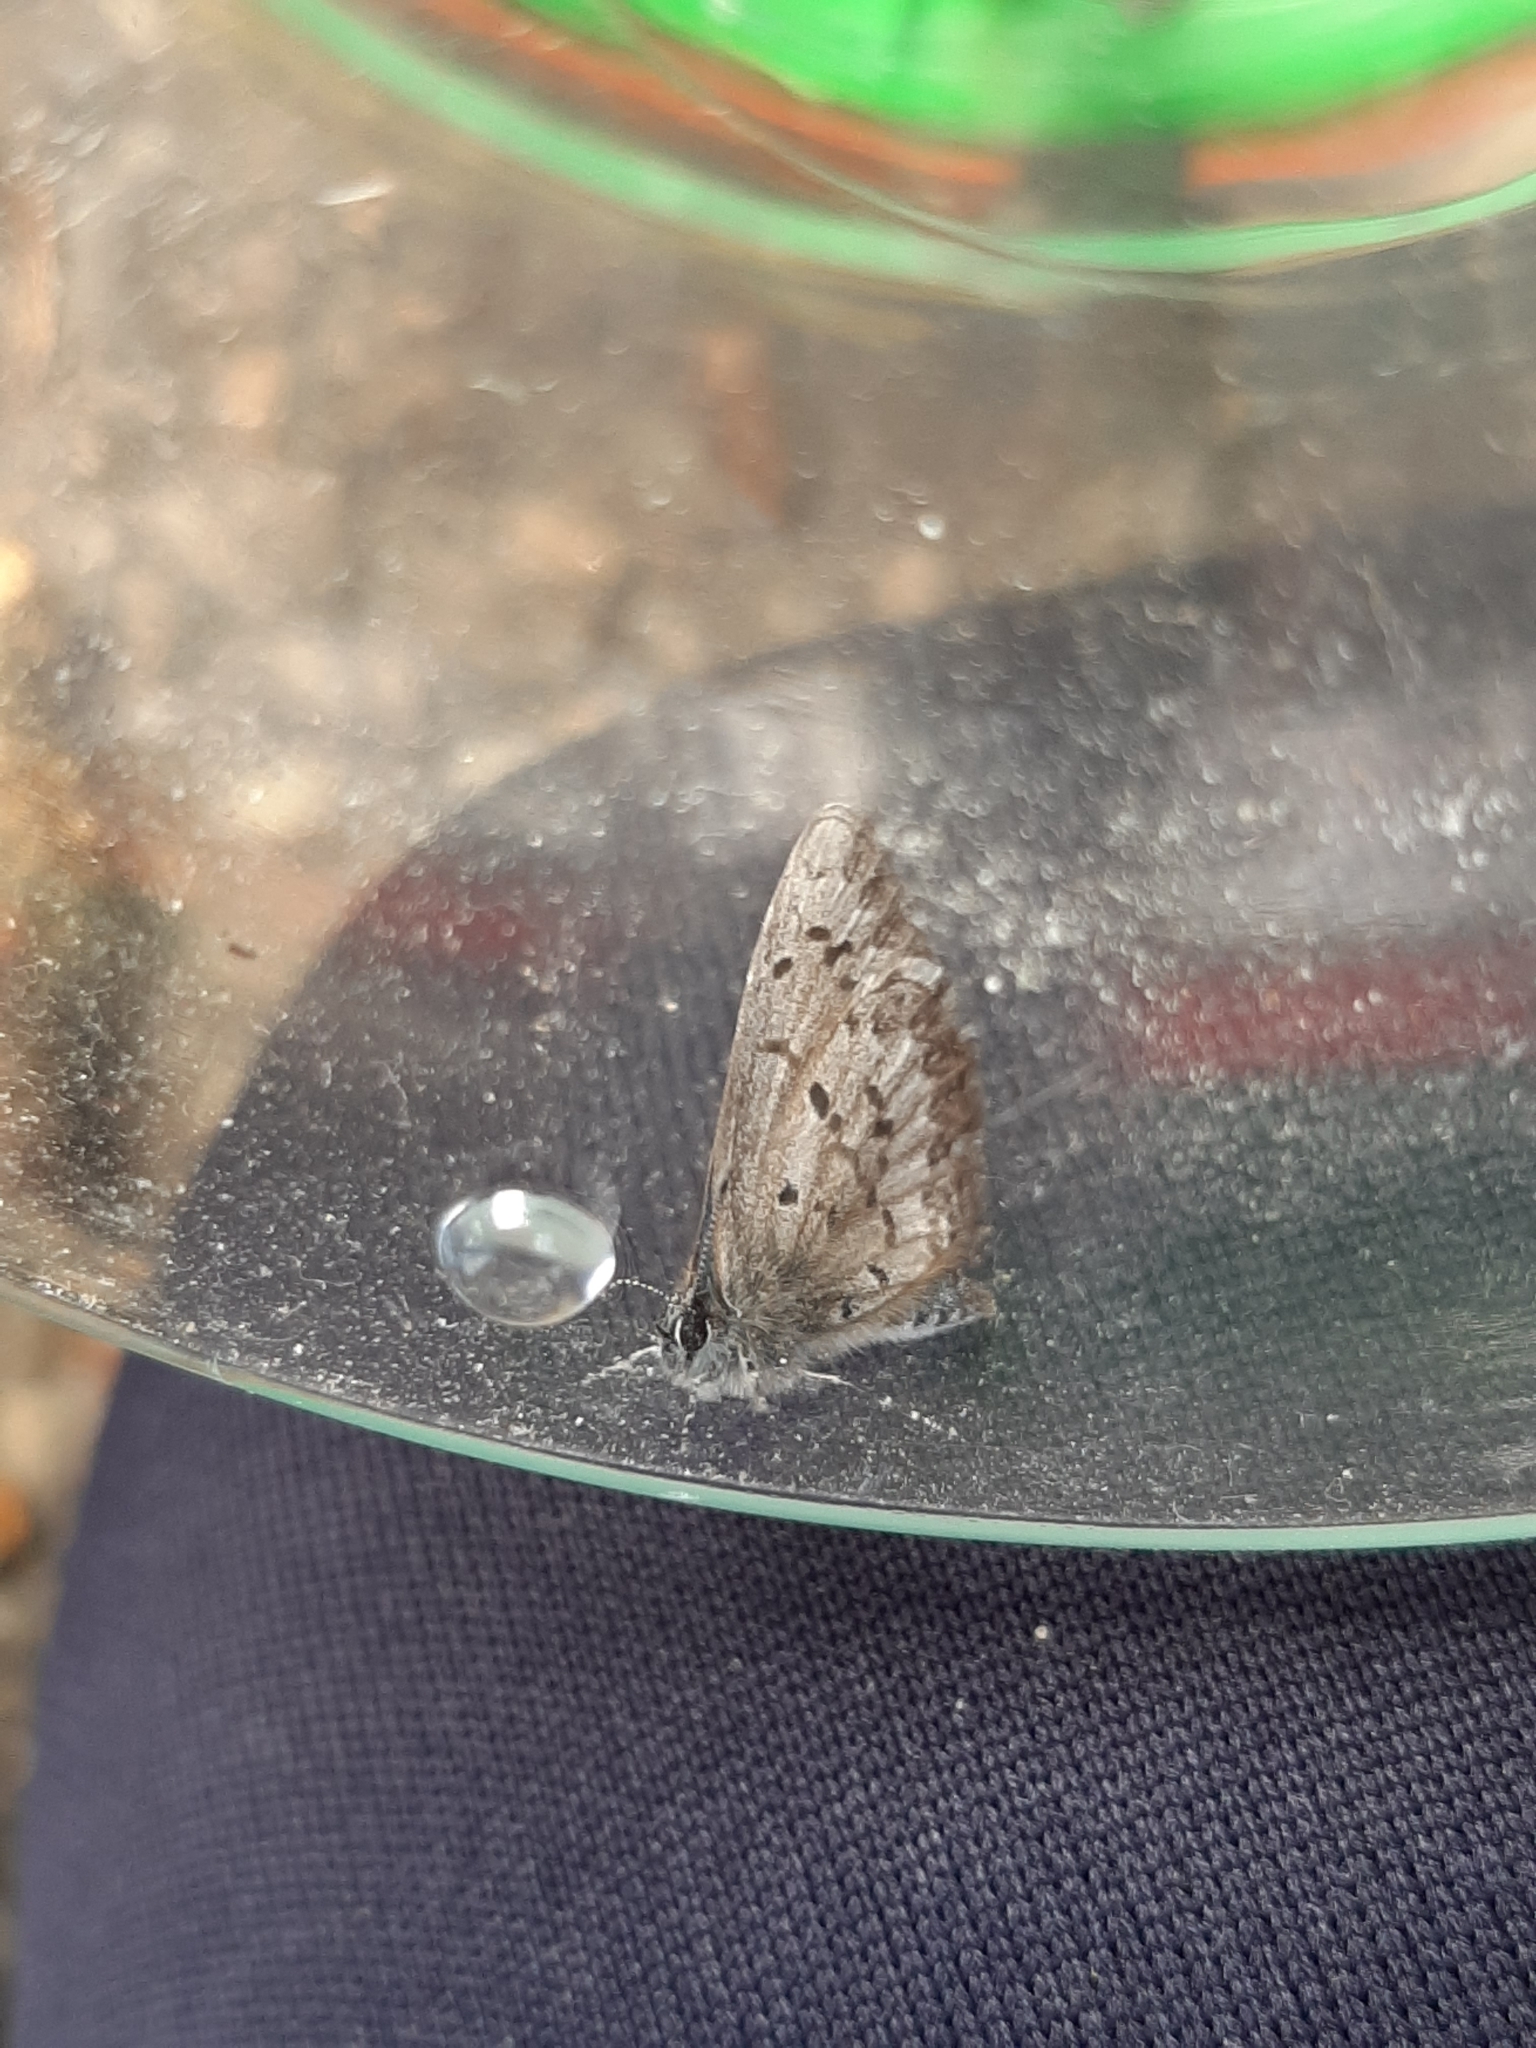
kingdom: Animalia
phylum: Arthropoda
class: Insecta
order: Lepidoptera
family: Lycaenidae
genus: Celastrina
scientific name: Celastrina lucia
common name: Lucia azure
